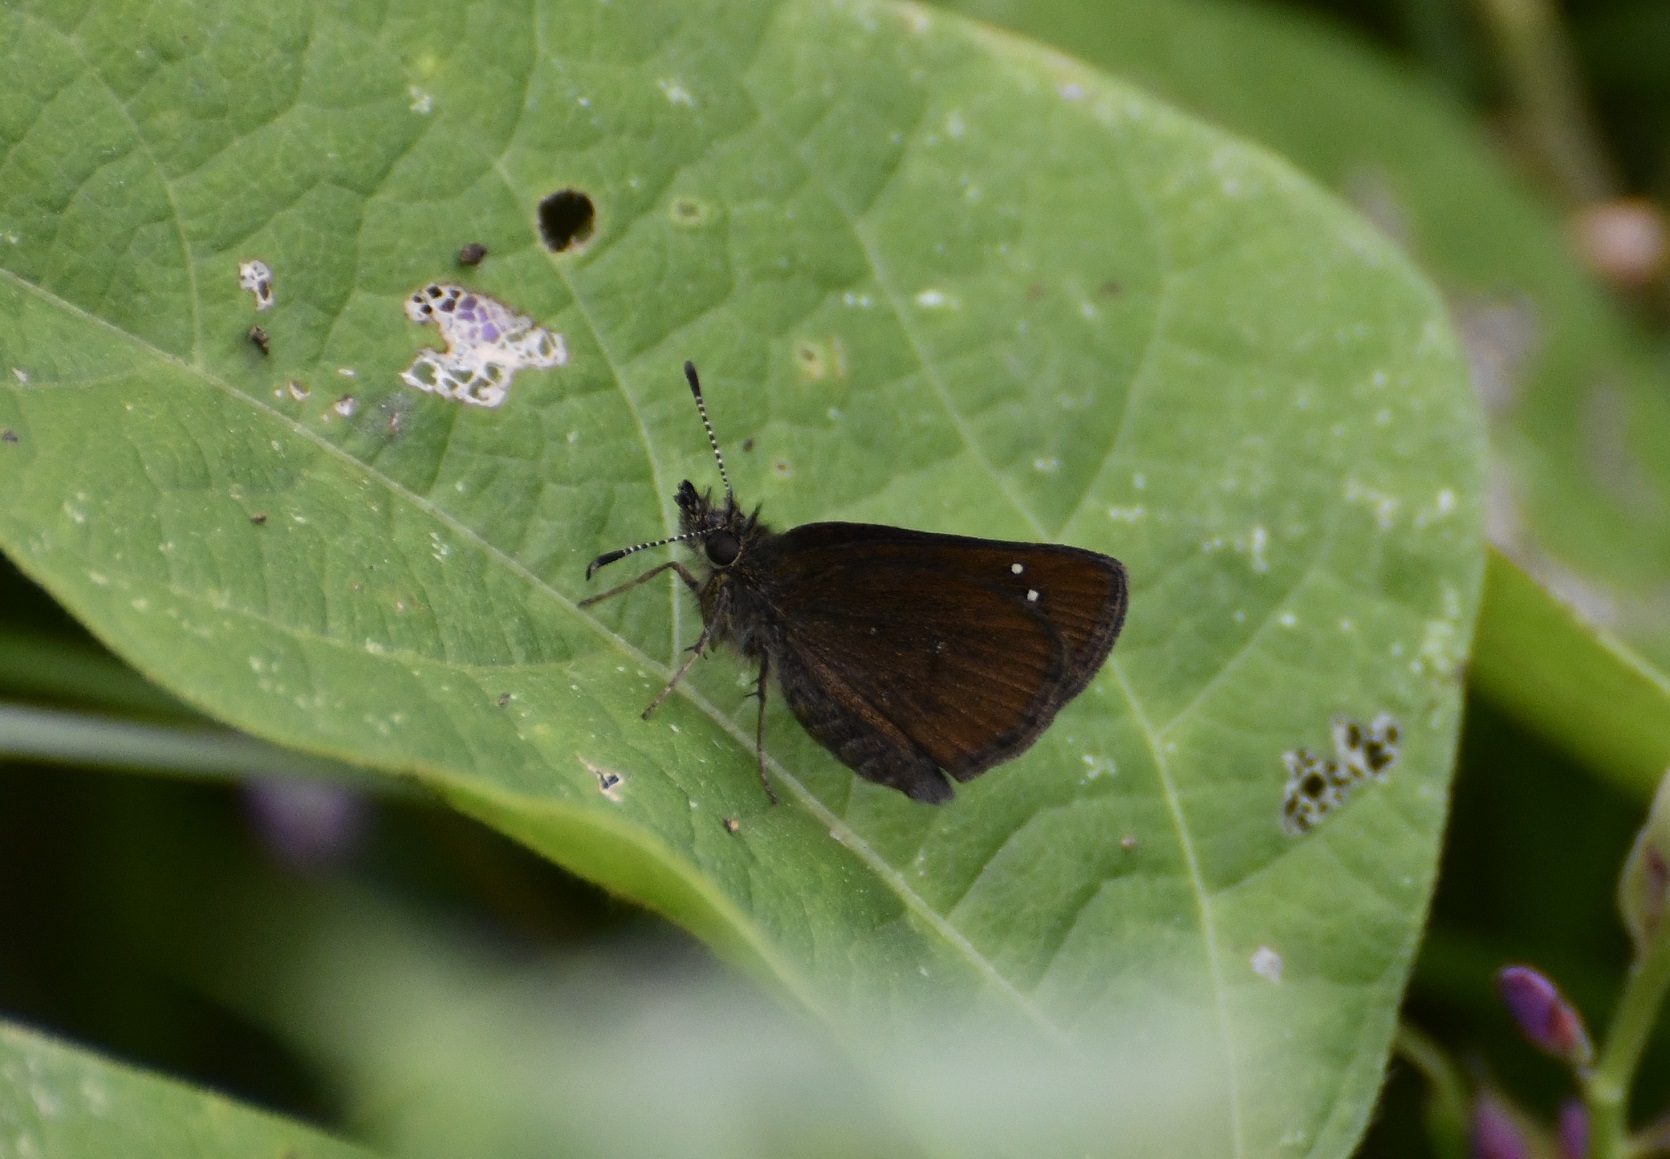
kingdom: Animalia
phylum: Arthropoda
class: Insecta
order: Lepidoptera
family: Hesperiidae
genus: Piruna
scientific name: Piruna brunnea
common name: Chocolate skipperling
